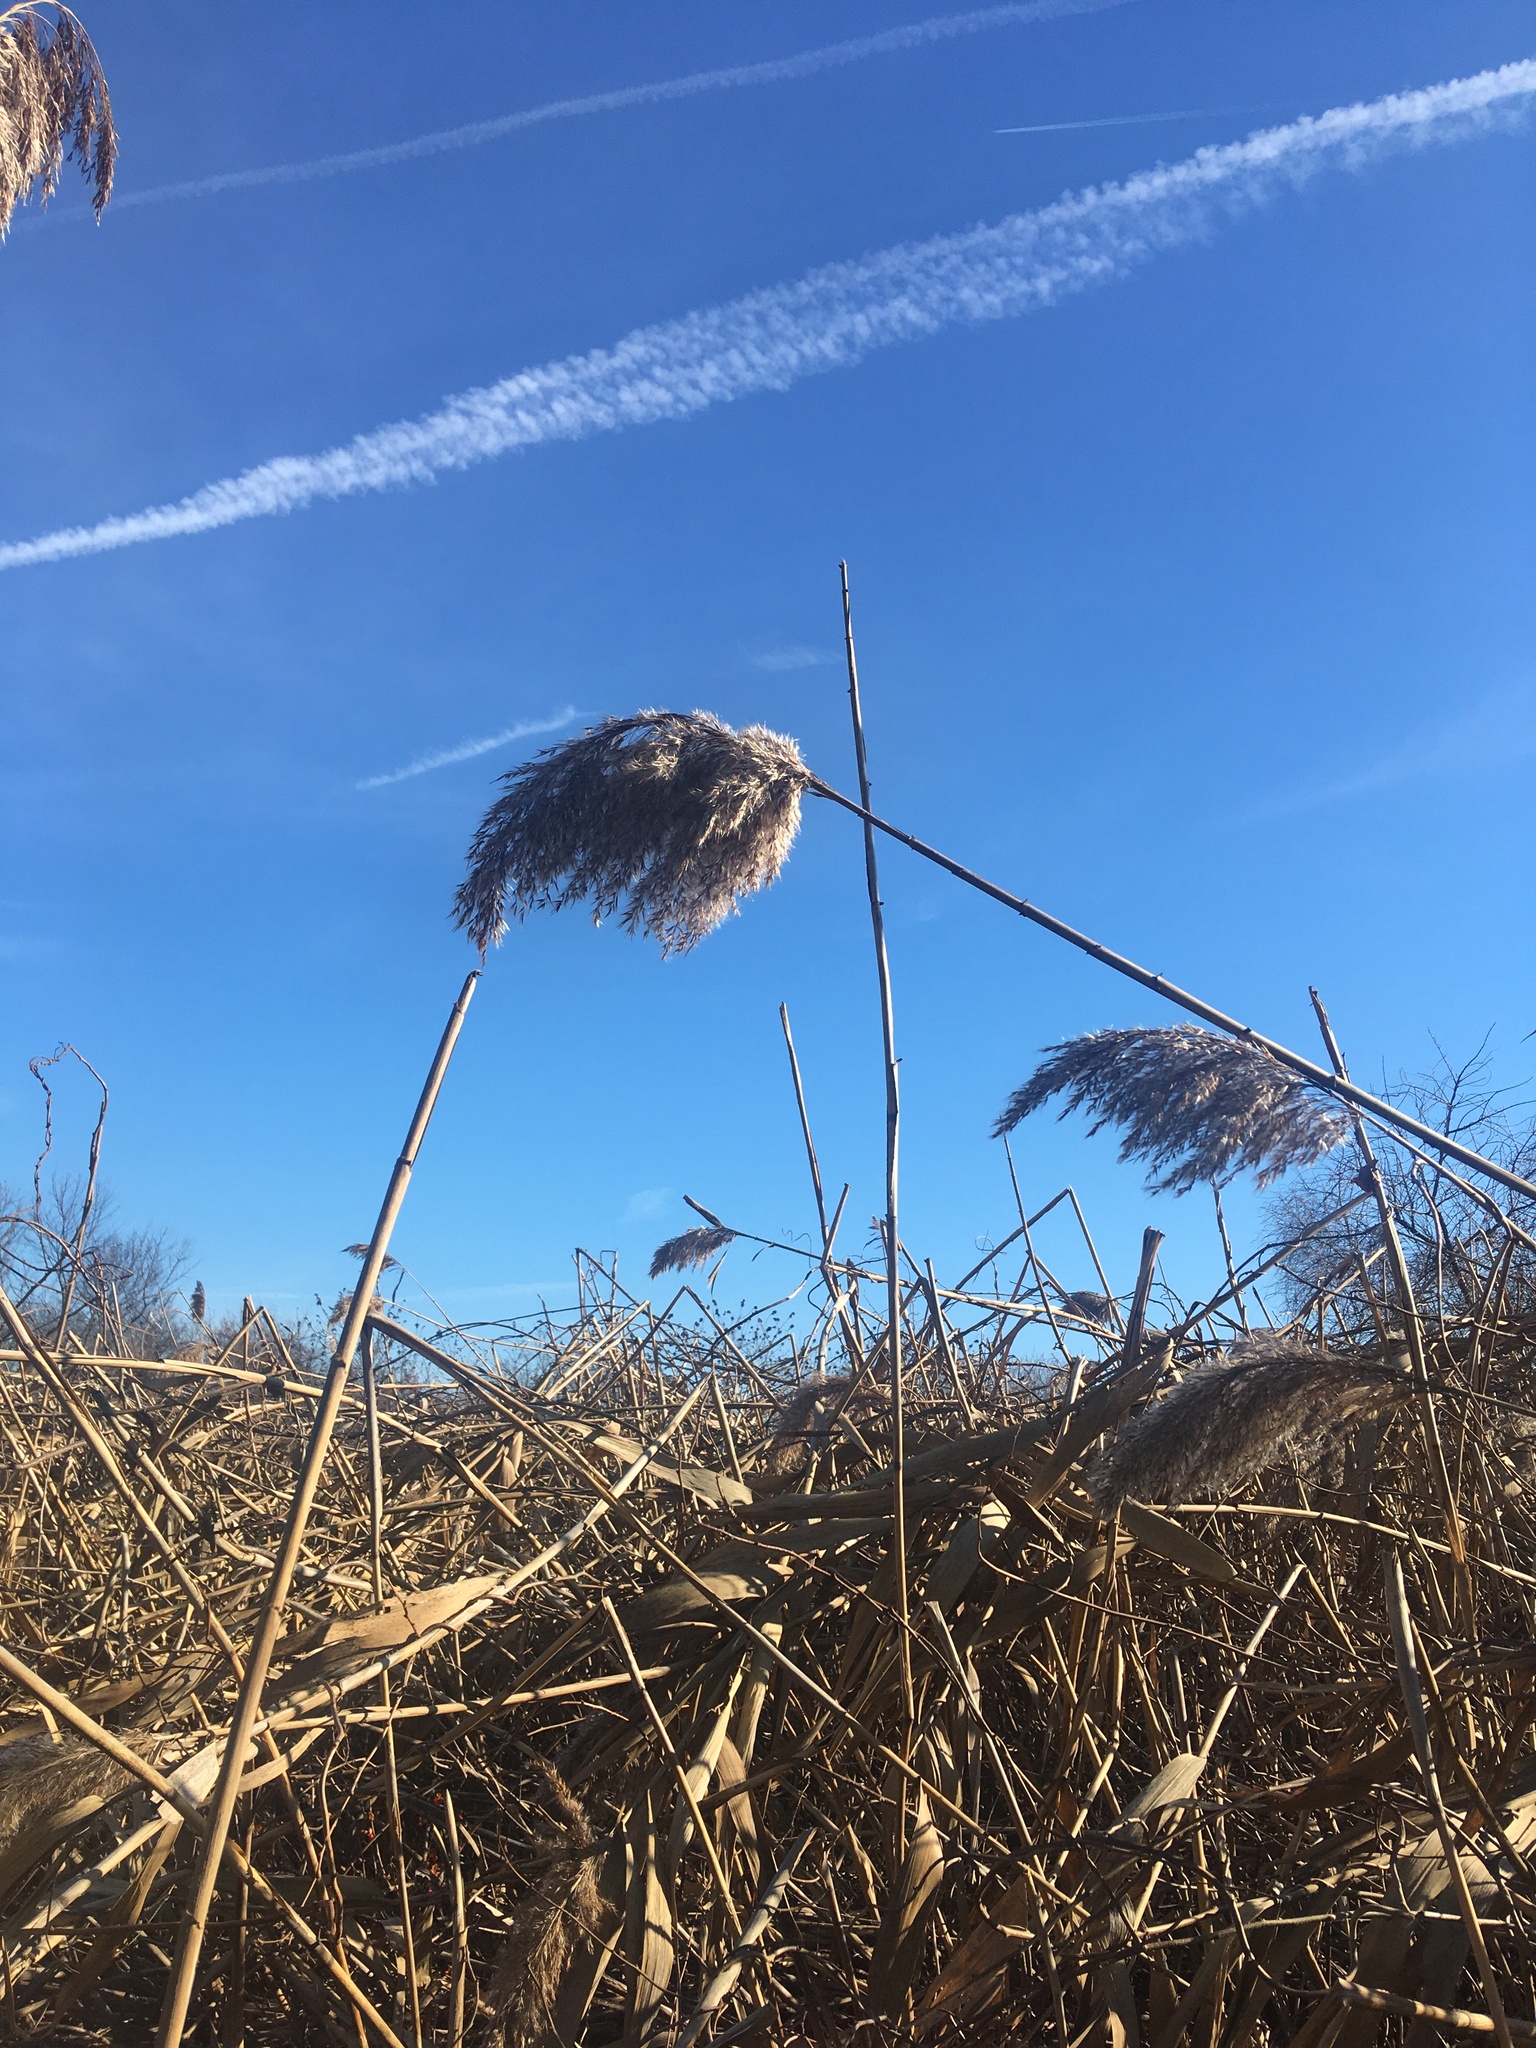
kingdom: Plantae
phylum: Tracheophyta
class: Liliopsida
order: Poales
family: Poaceae
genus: Phragmites
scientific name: Phragmites australis
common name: Common reed
